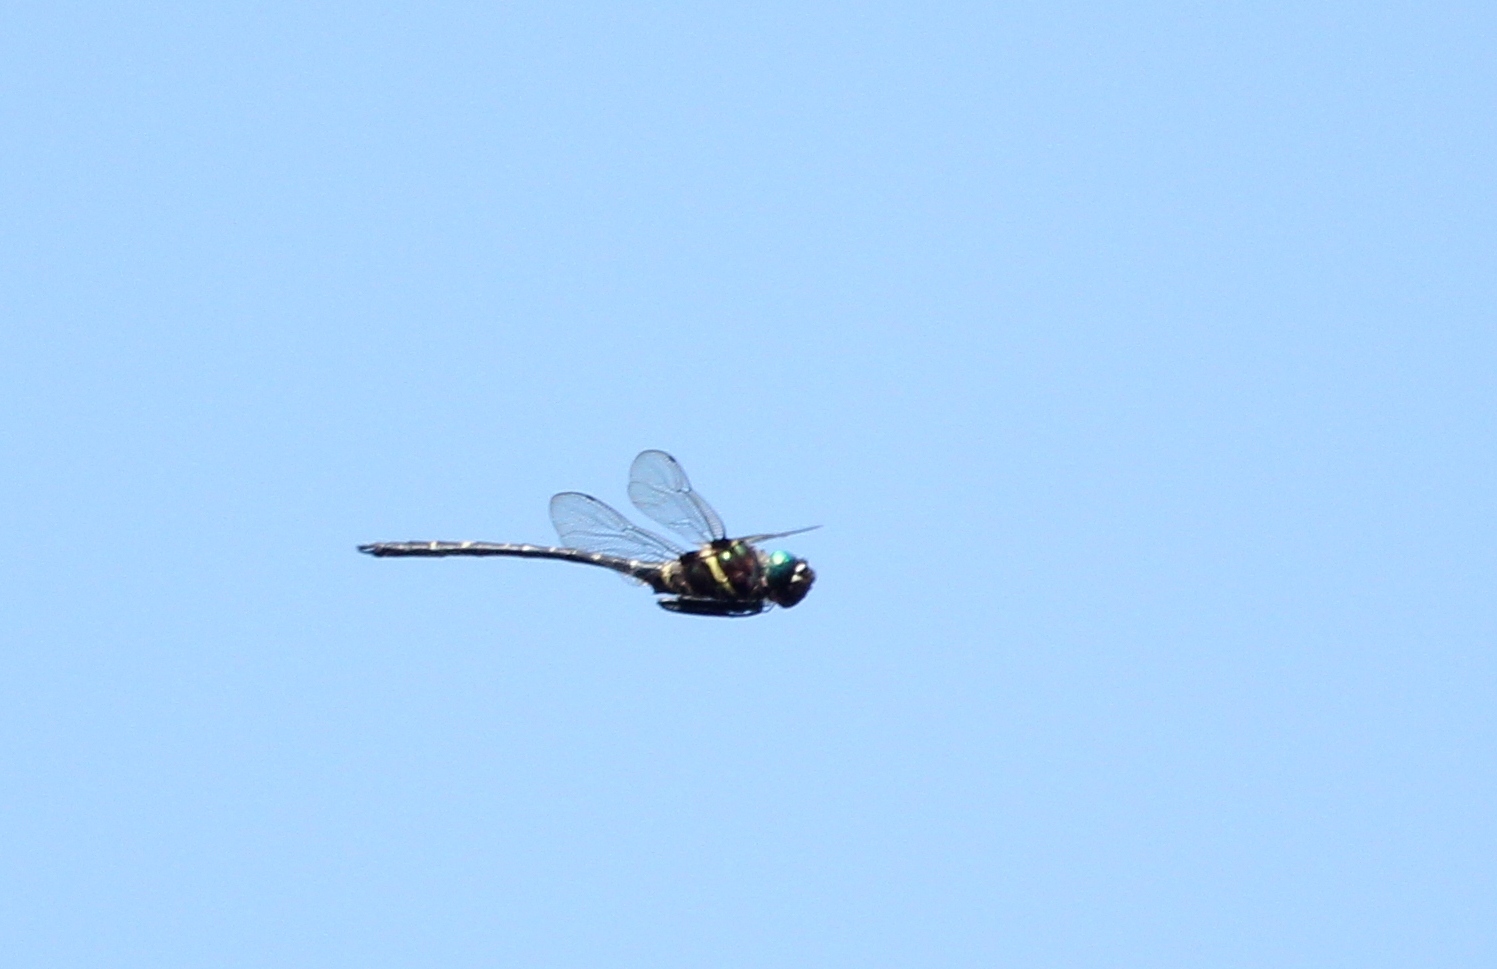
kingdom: Animalia
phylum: Arthropoda
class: Insecta
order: Odonata
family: Macromiidae
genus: Macromia
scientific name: Macromia taeniolata
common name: Royal river cruiser
